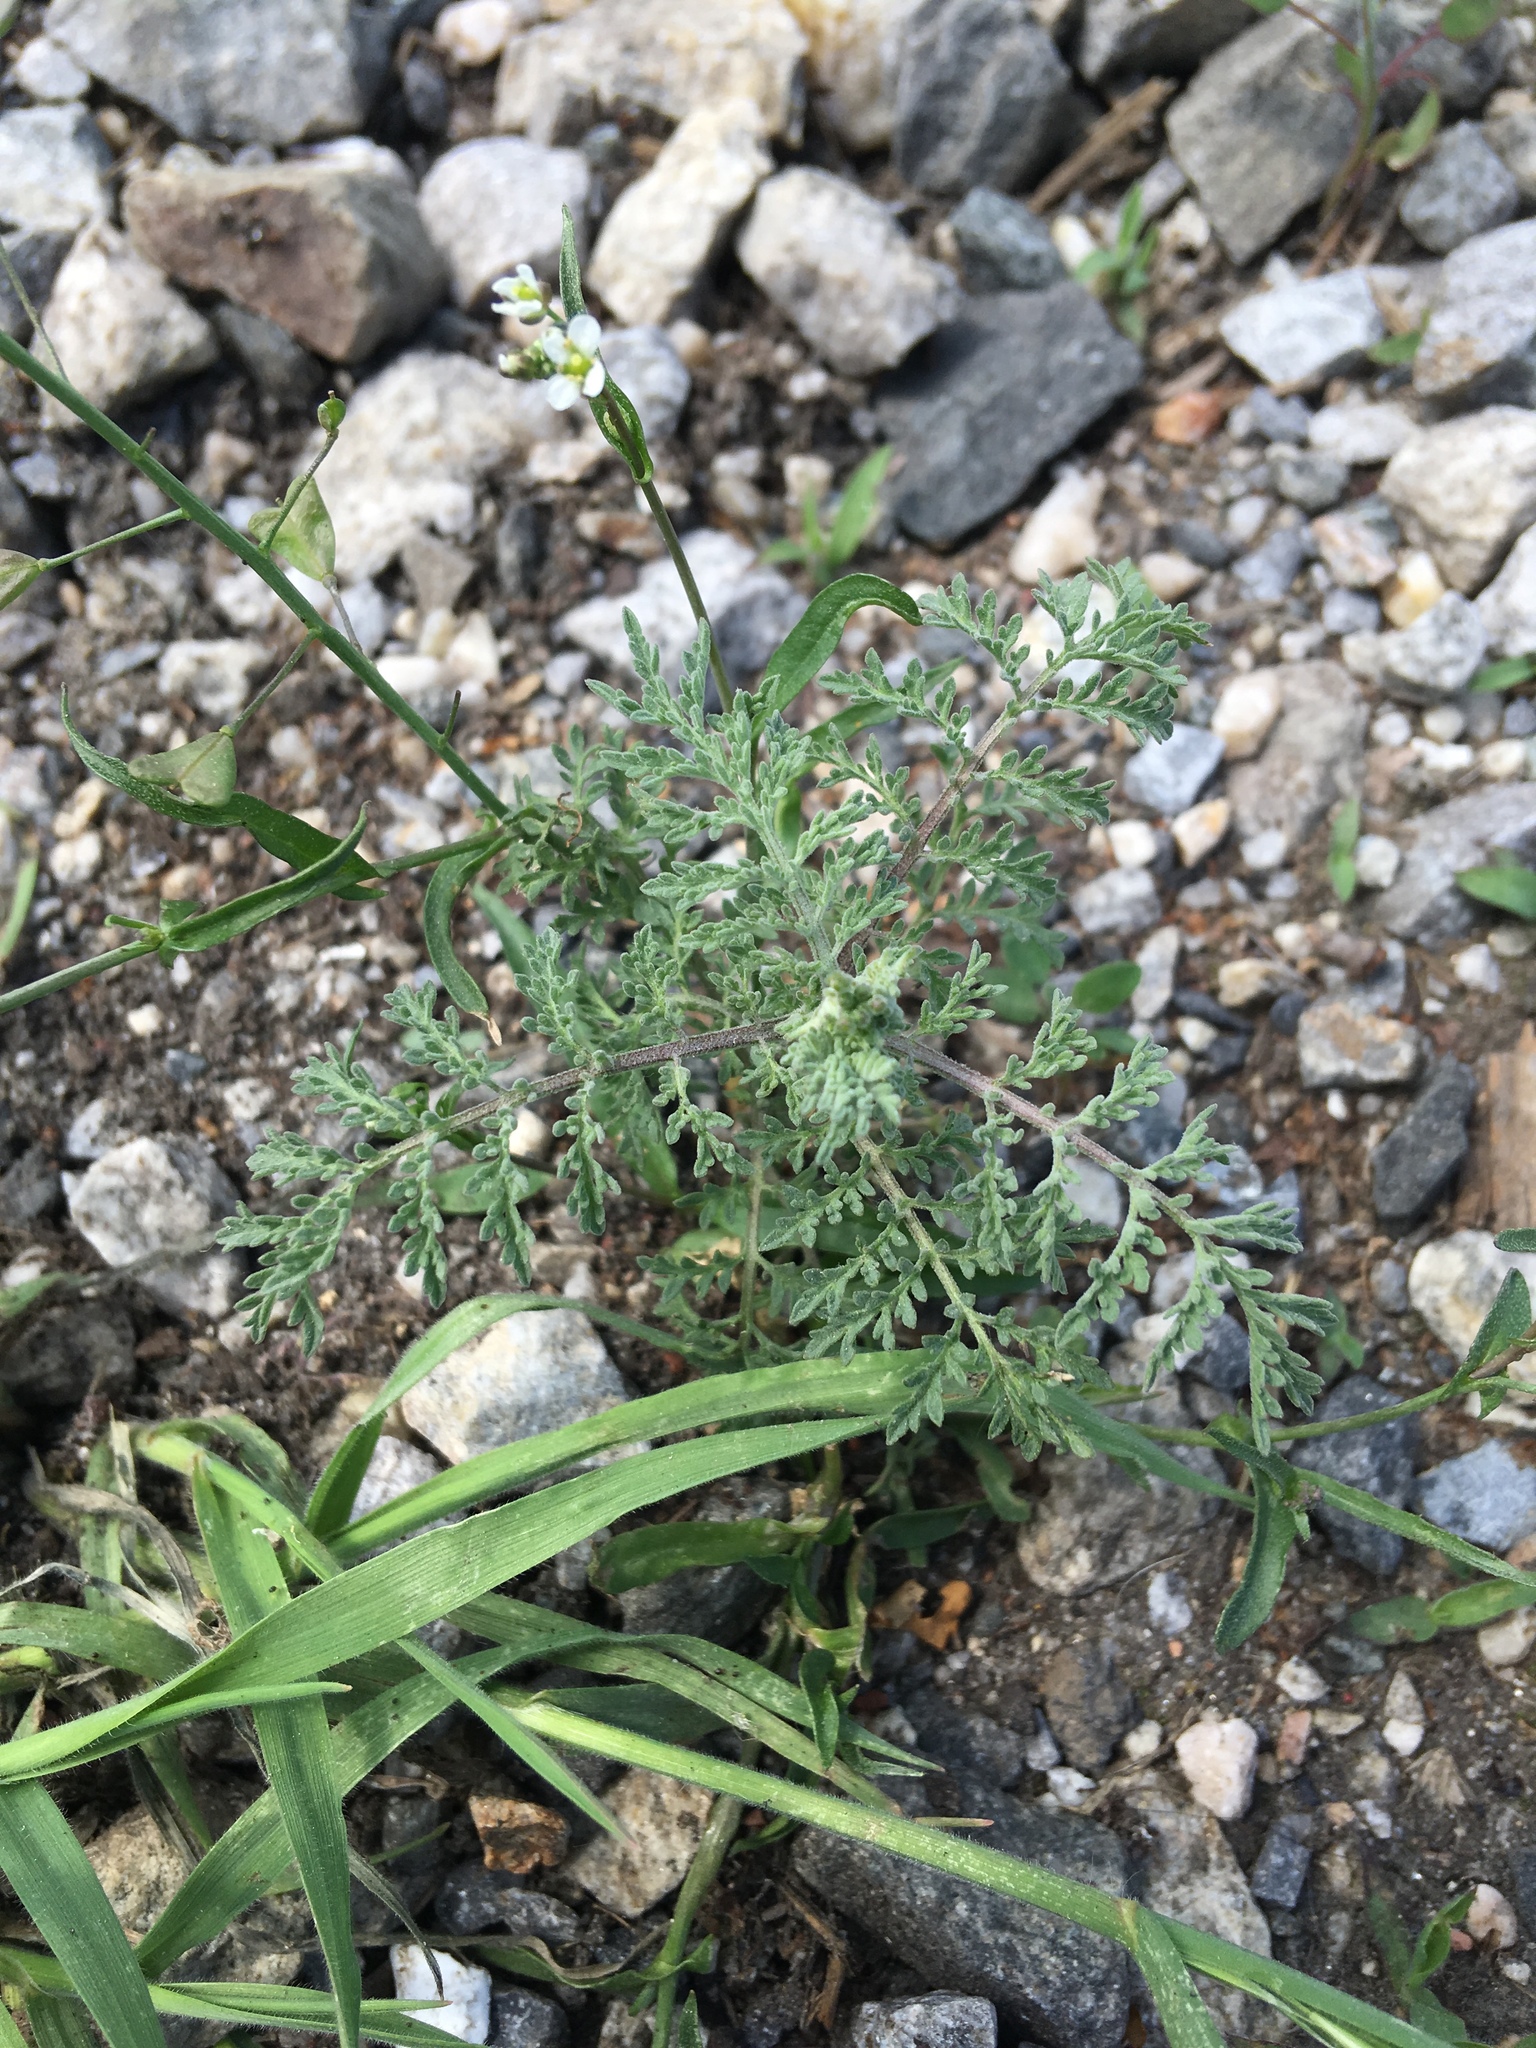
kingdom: Plantae
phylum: Tracheophyta
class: Magnoliopsida
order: Brassicales
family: Brassicaceae
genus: Descurainia
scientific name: Descurainia sophia
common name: Flixweed
